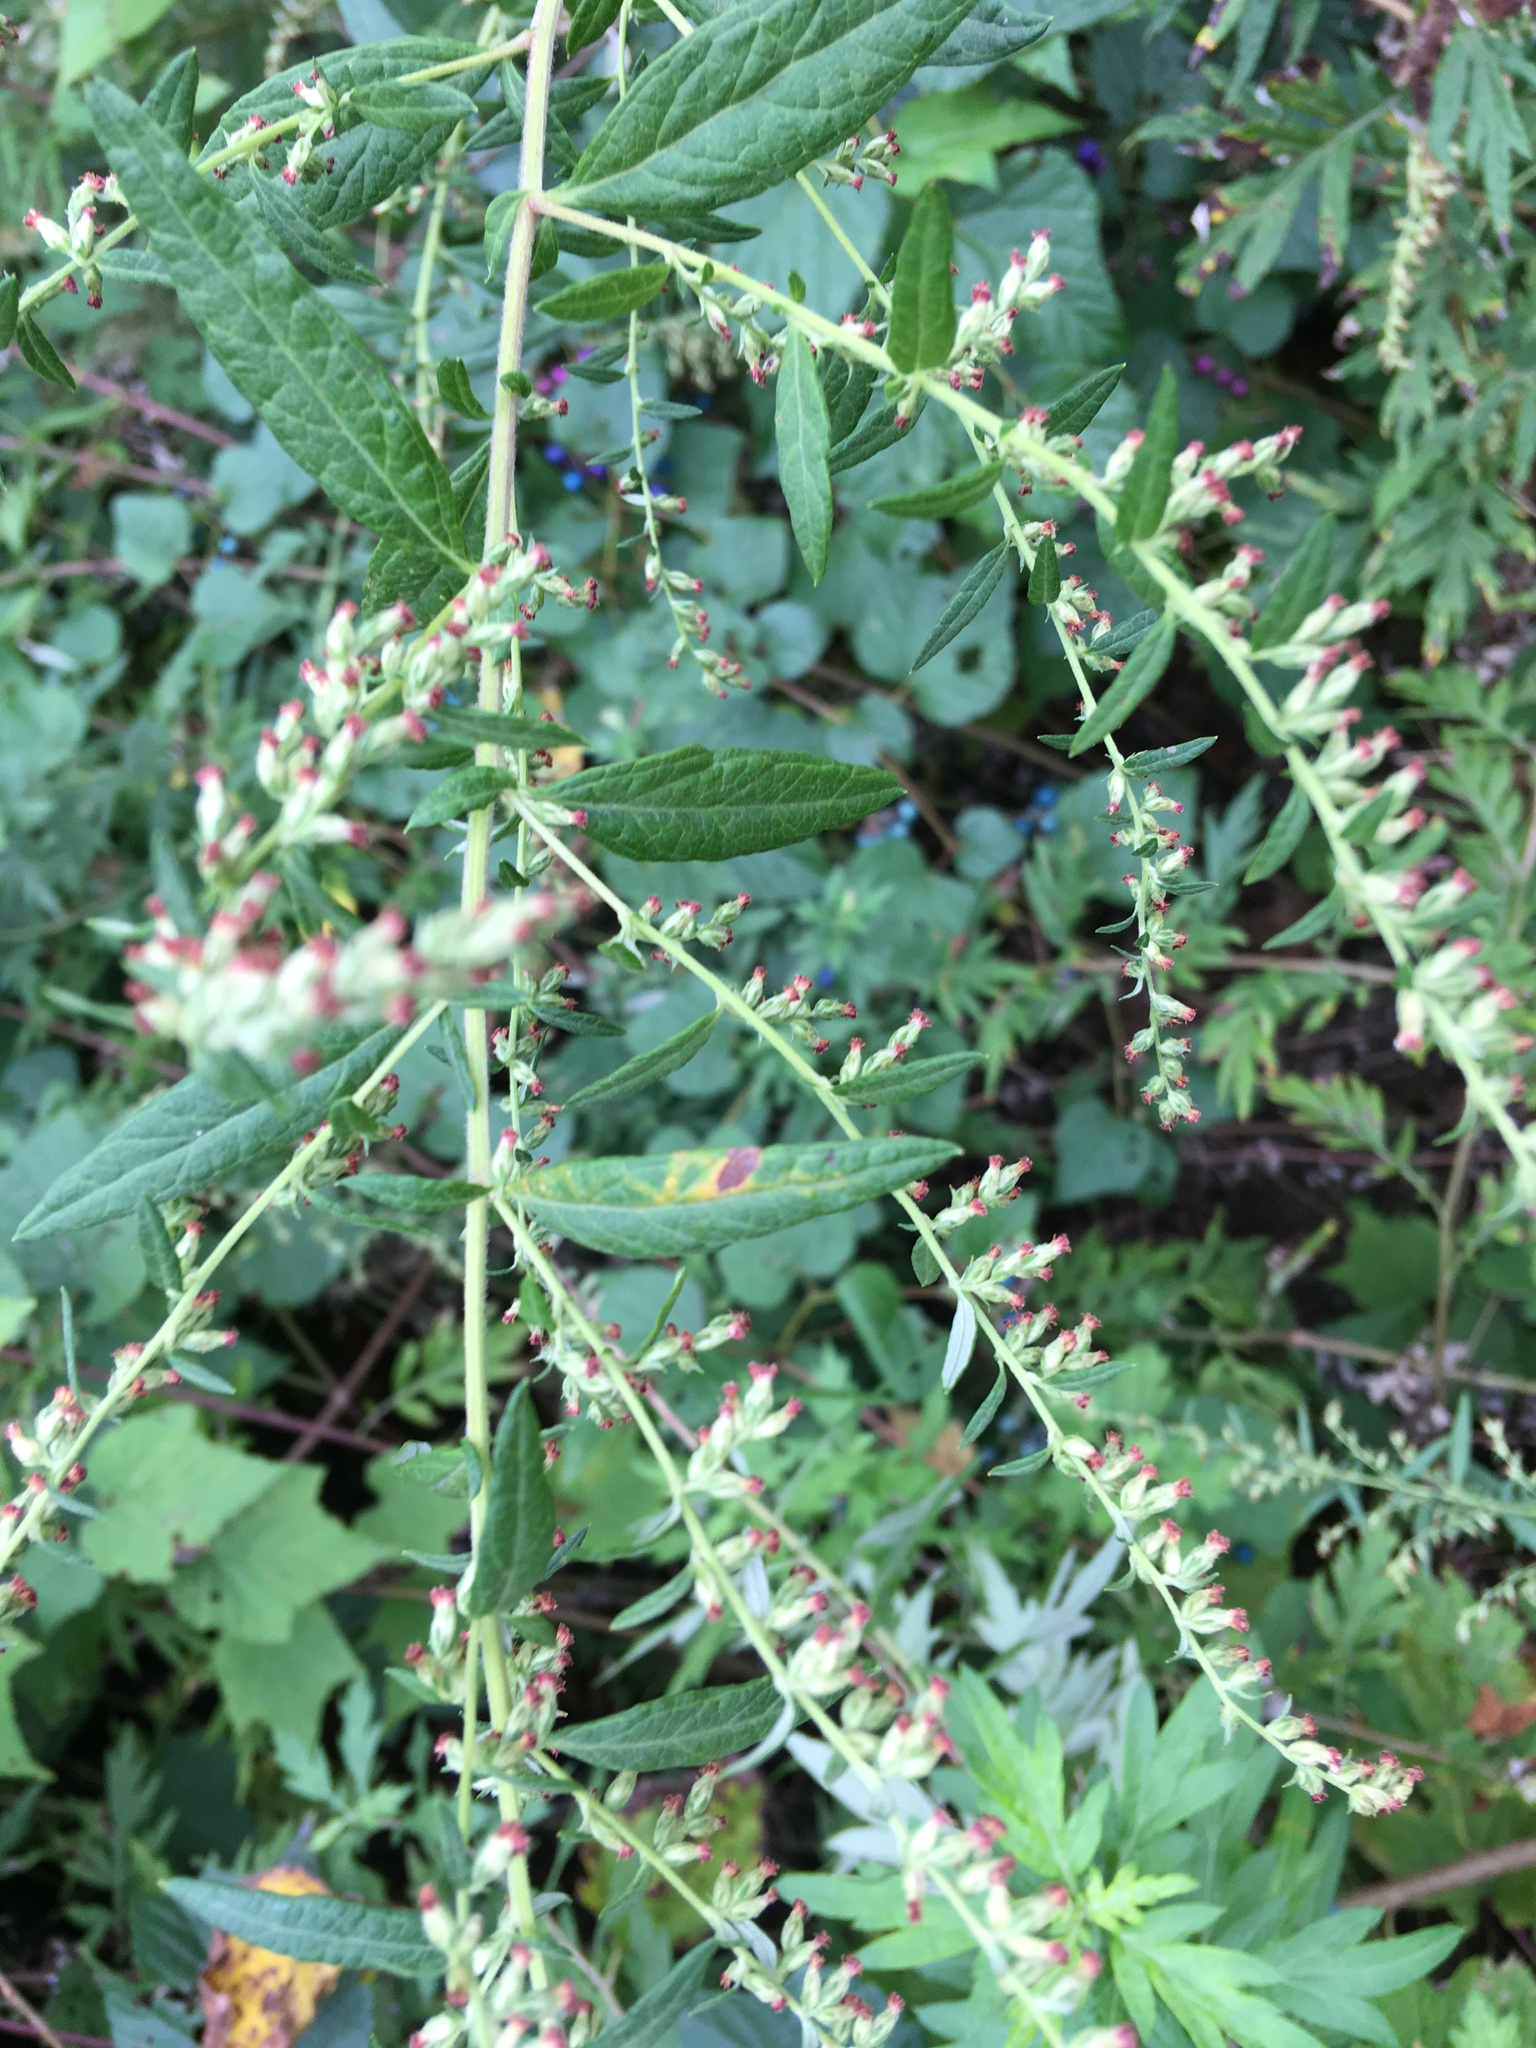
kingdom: Plantae
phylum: Tracheophyta
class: Magnoliopsida
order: Asterales
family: Asteraceae
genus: Artemisia
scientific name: Artemisia vulgaris
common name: Mugwort
